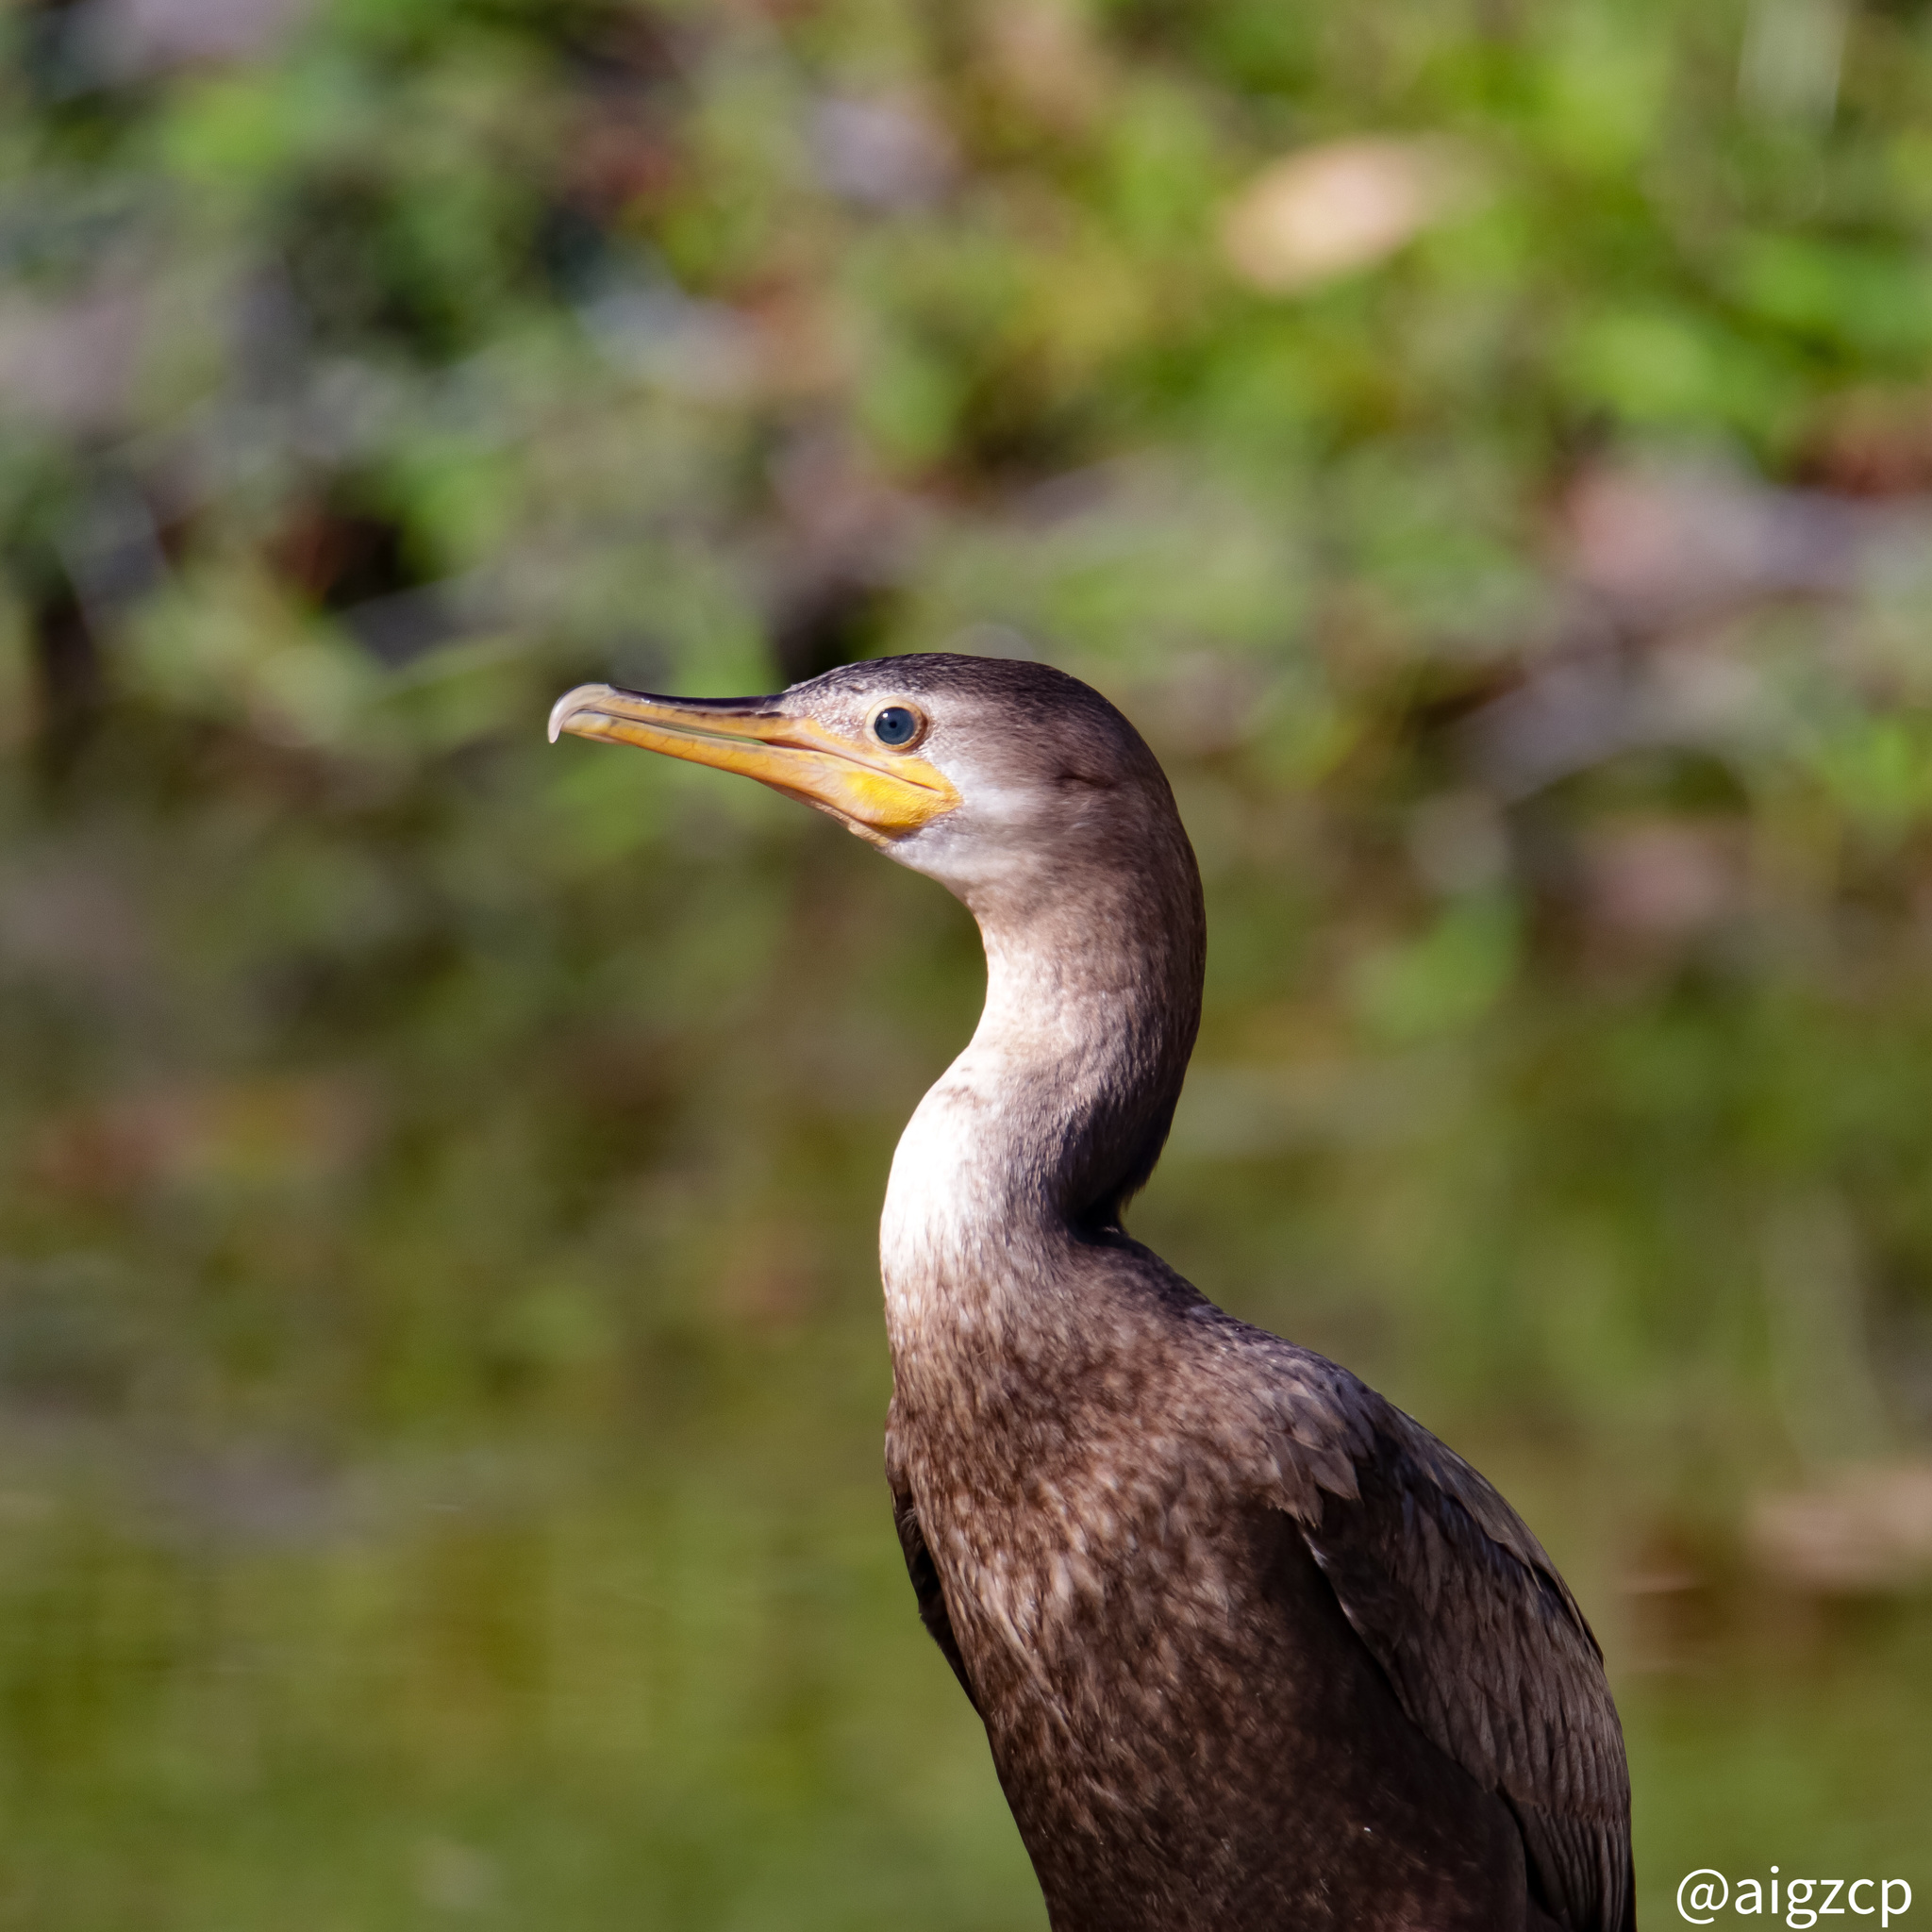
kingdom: Animalia
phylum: Chordata
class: Aves
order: Suliformes
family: Phalacrocoracidae
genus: Phalacrocorax
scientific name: Phalacrocorax brasilianus
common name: Neotropic cormorant
